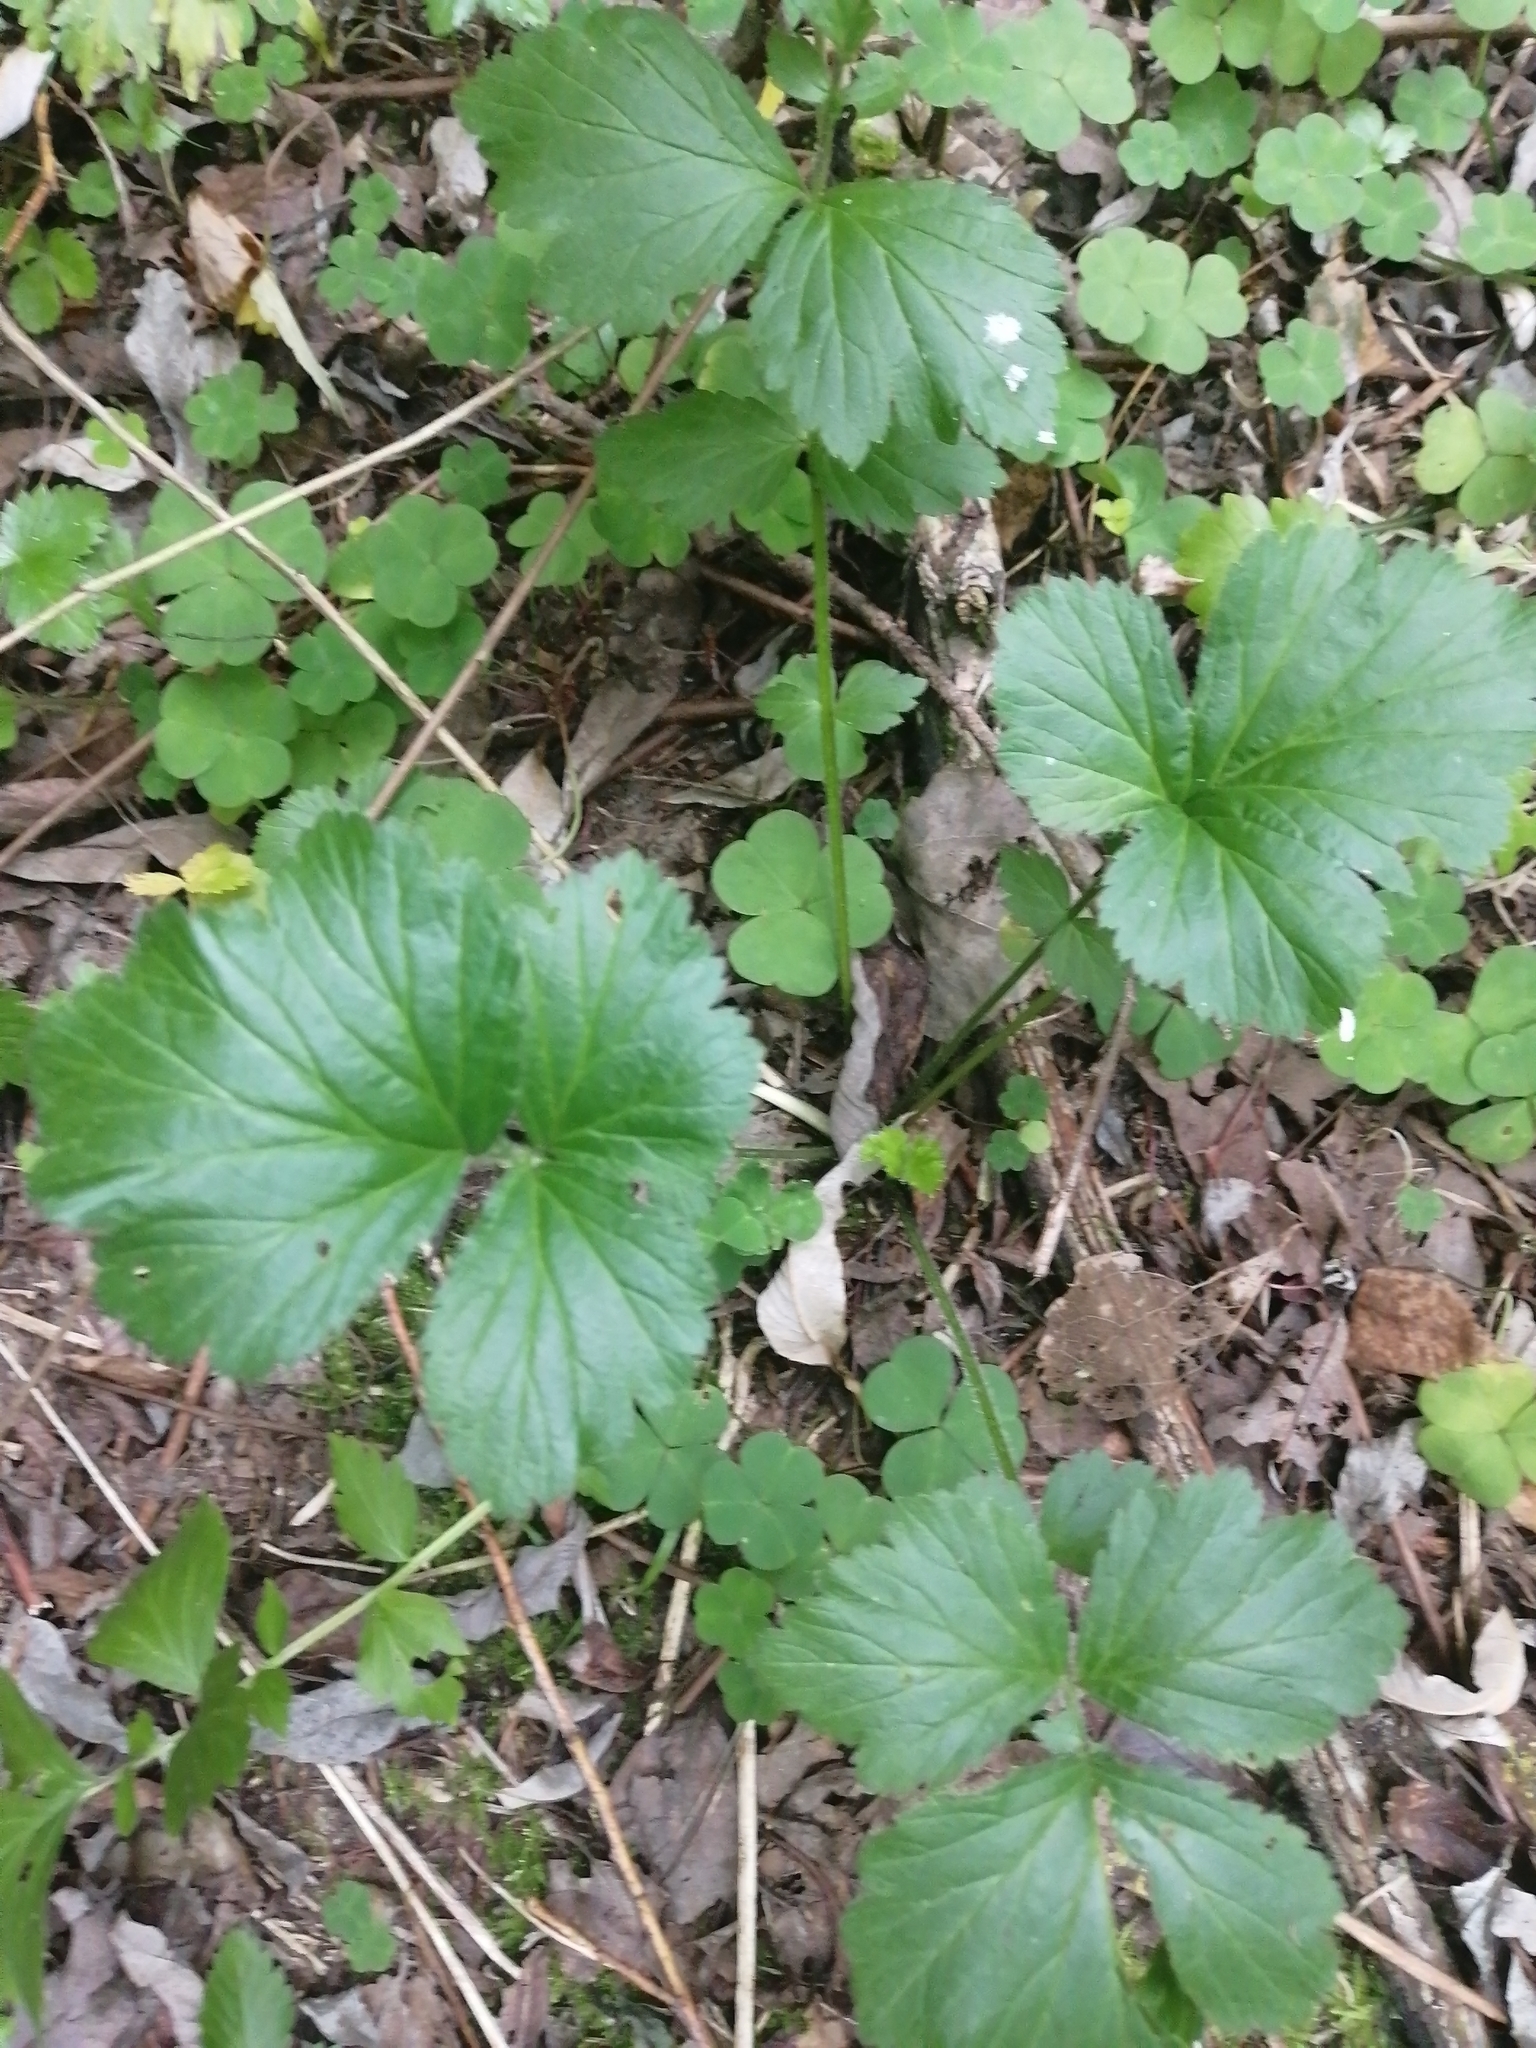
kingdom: Plantae
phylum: Tracheophyta
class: Magnoliopsida
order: Rosales
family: Rosaceae
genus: Geum
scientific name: Geum aleppicum
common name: Yellow avens
